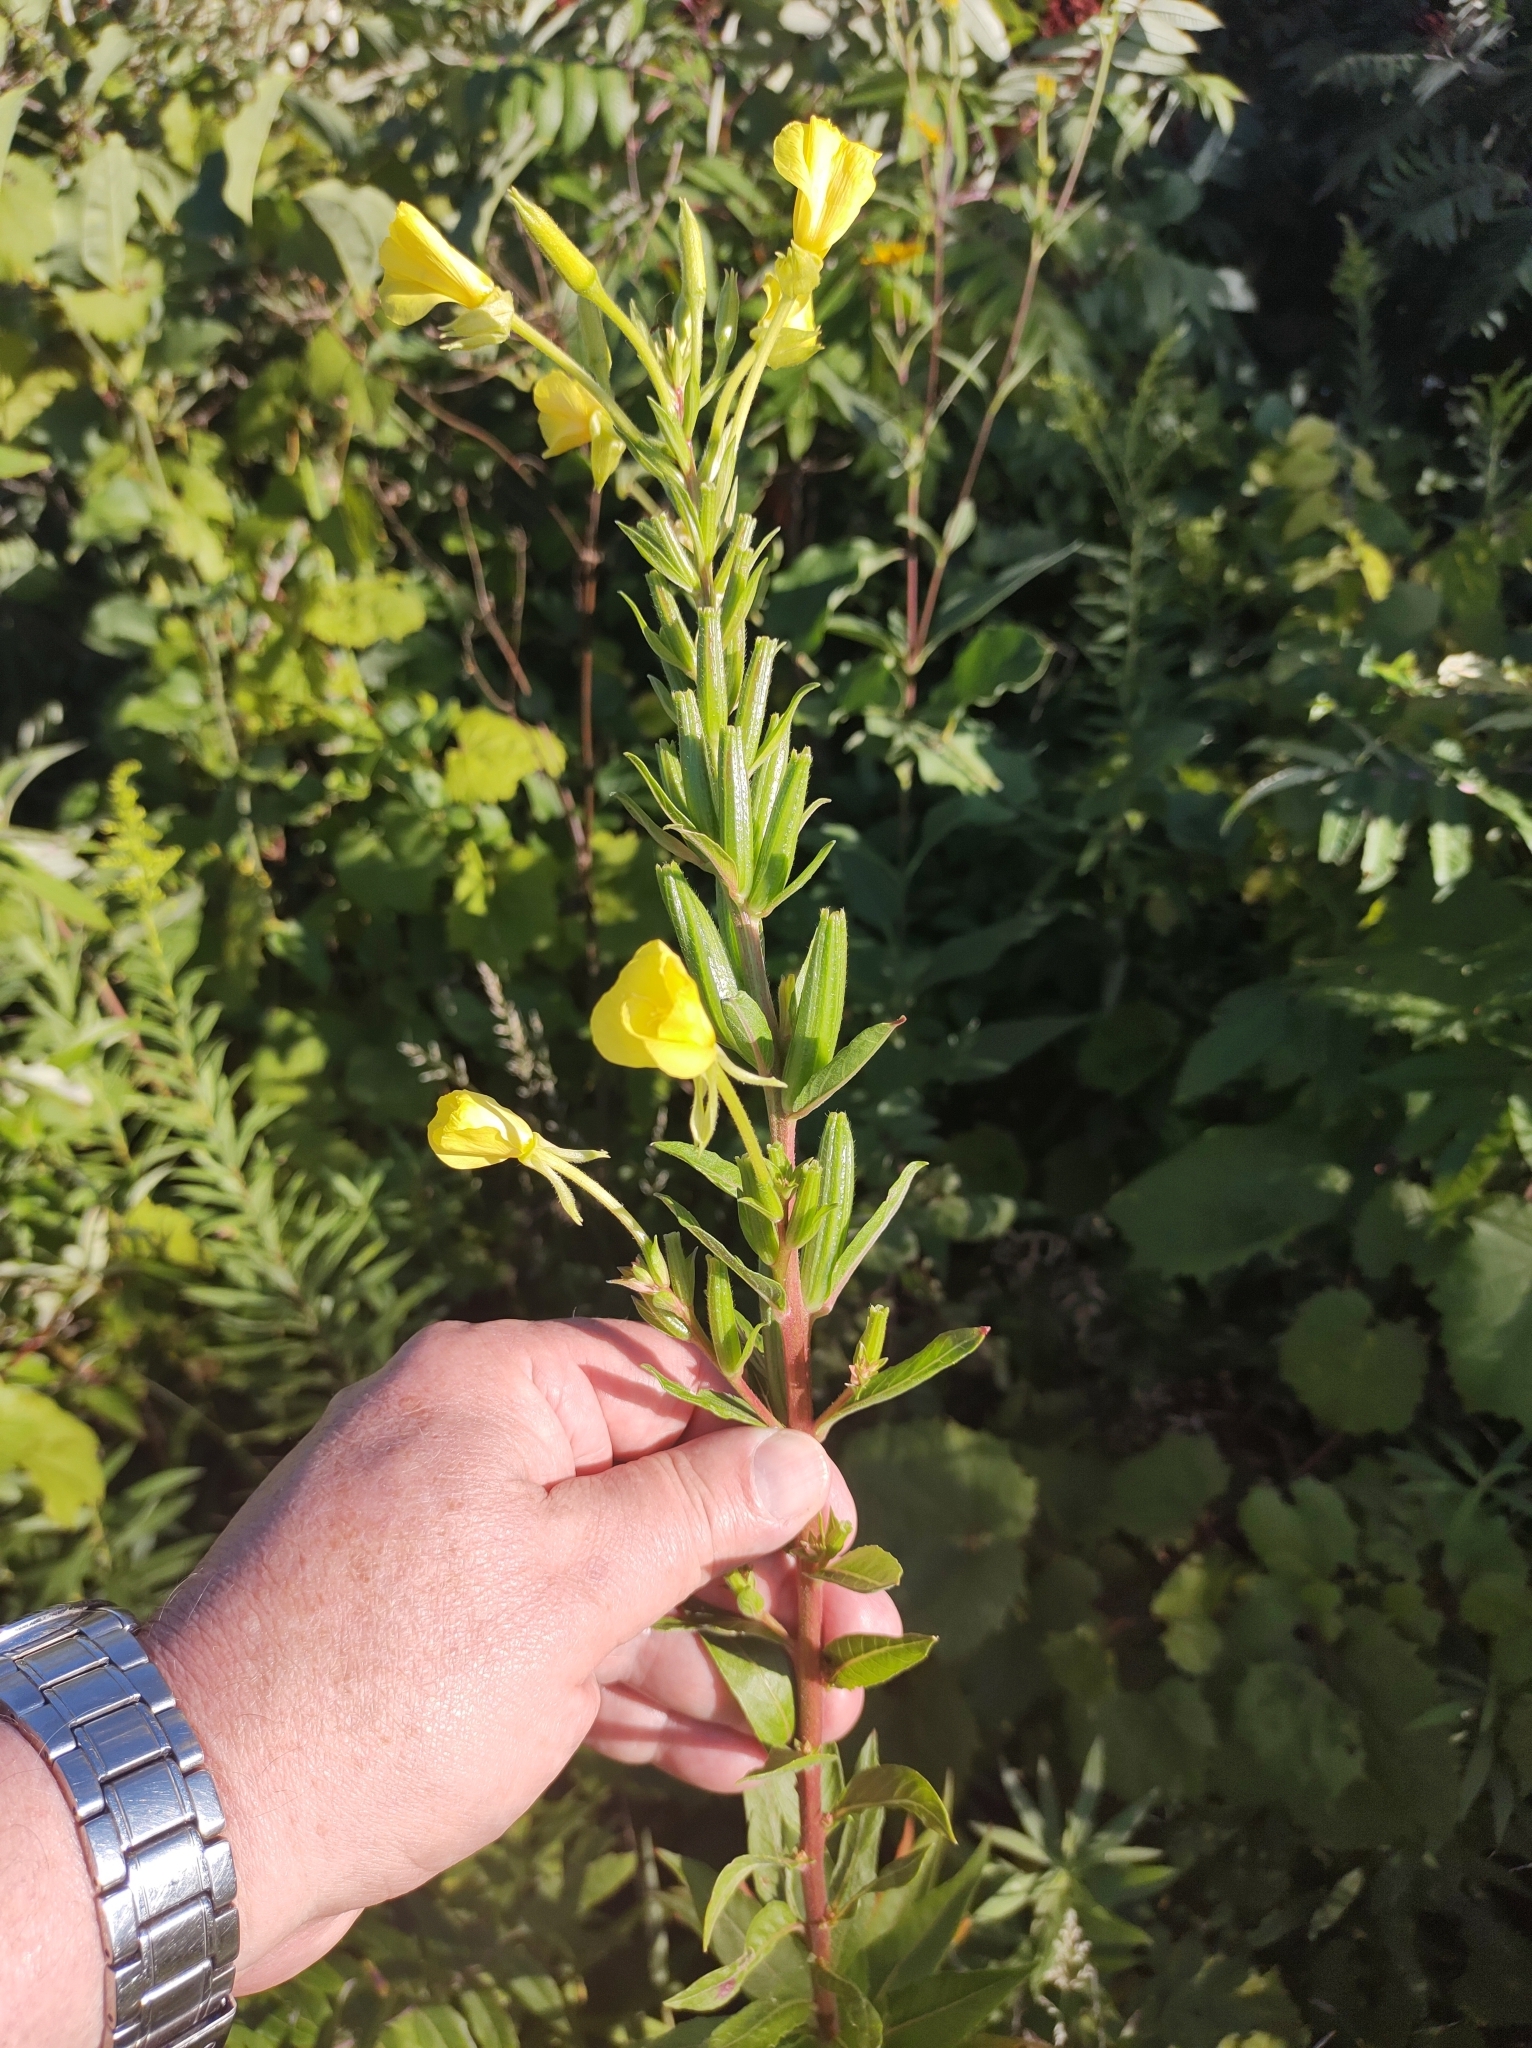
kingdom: Plantae
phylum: Tracheophyta
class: Magnoliopsida
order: Myrtales
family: Onagraceae
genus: Oenothera
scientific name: Oenothera biennis
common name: Common evening-primrose
